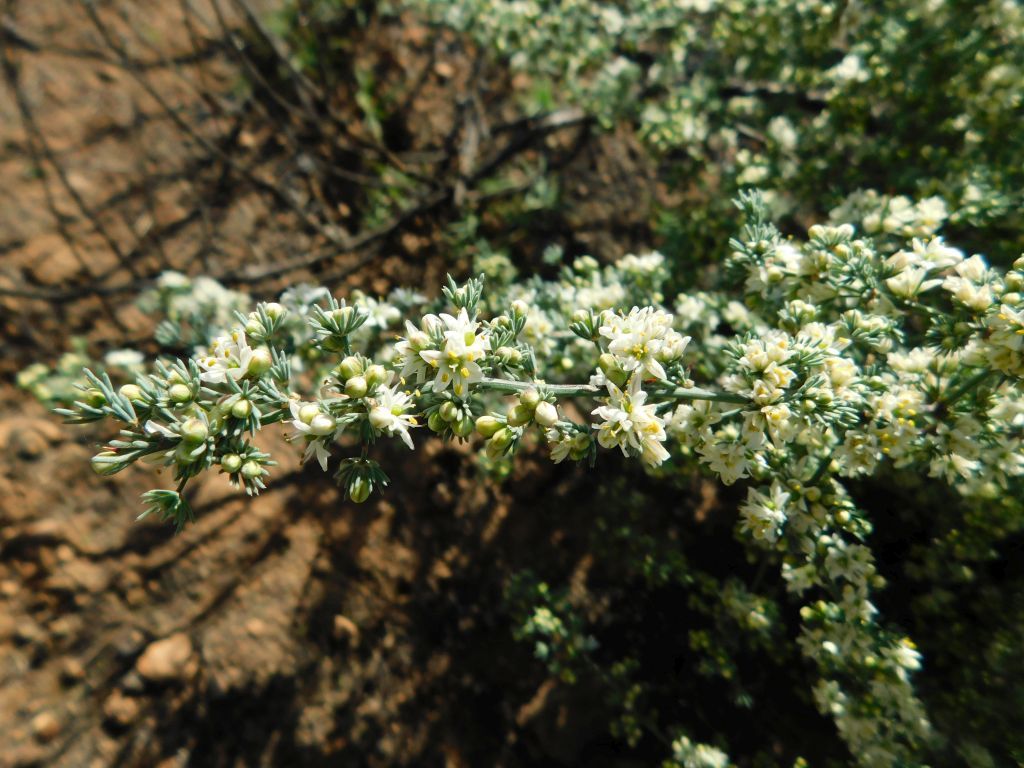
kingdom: Plantae
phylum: Tracheophyta
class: Liliopsida
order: Asparagales
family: Asparagaceae
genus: Asparagus
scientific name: Asparagus capensis
